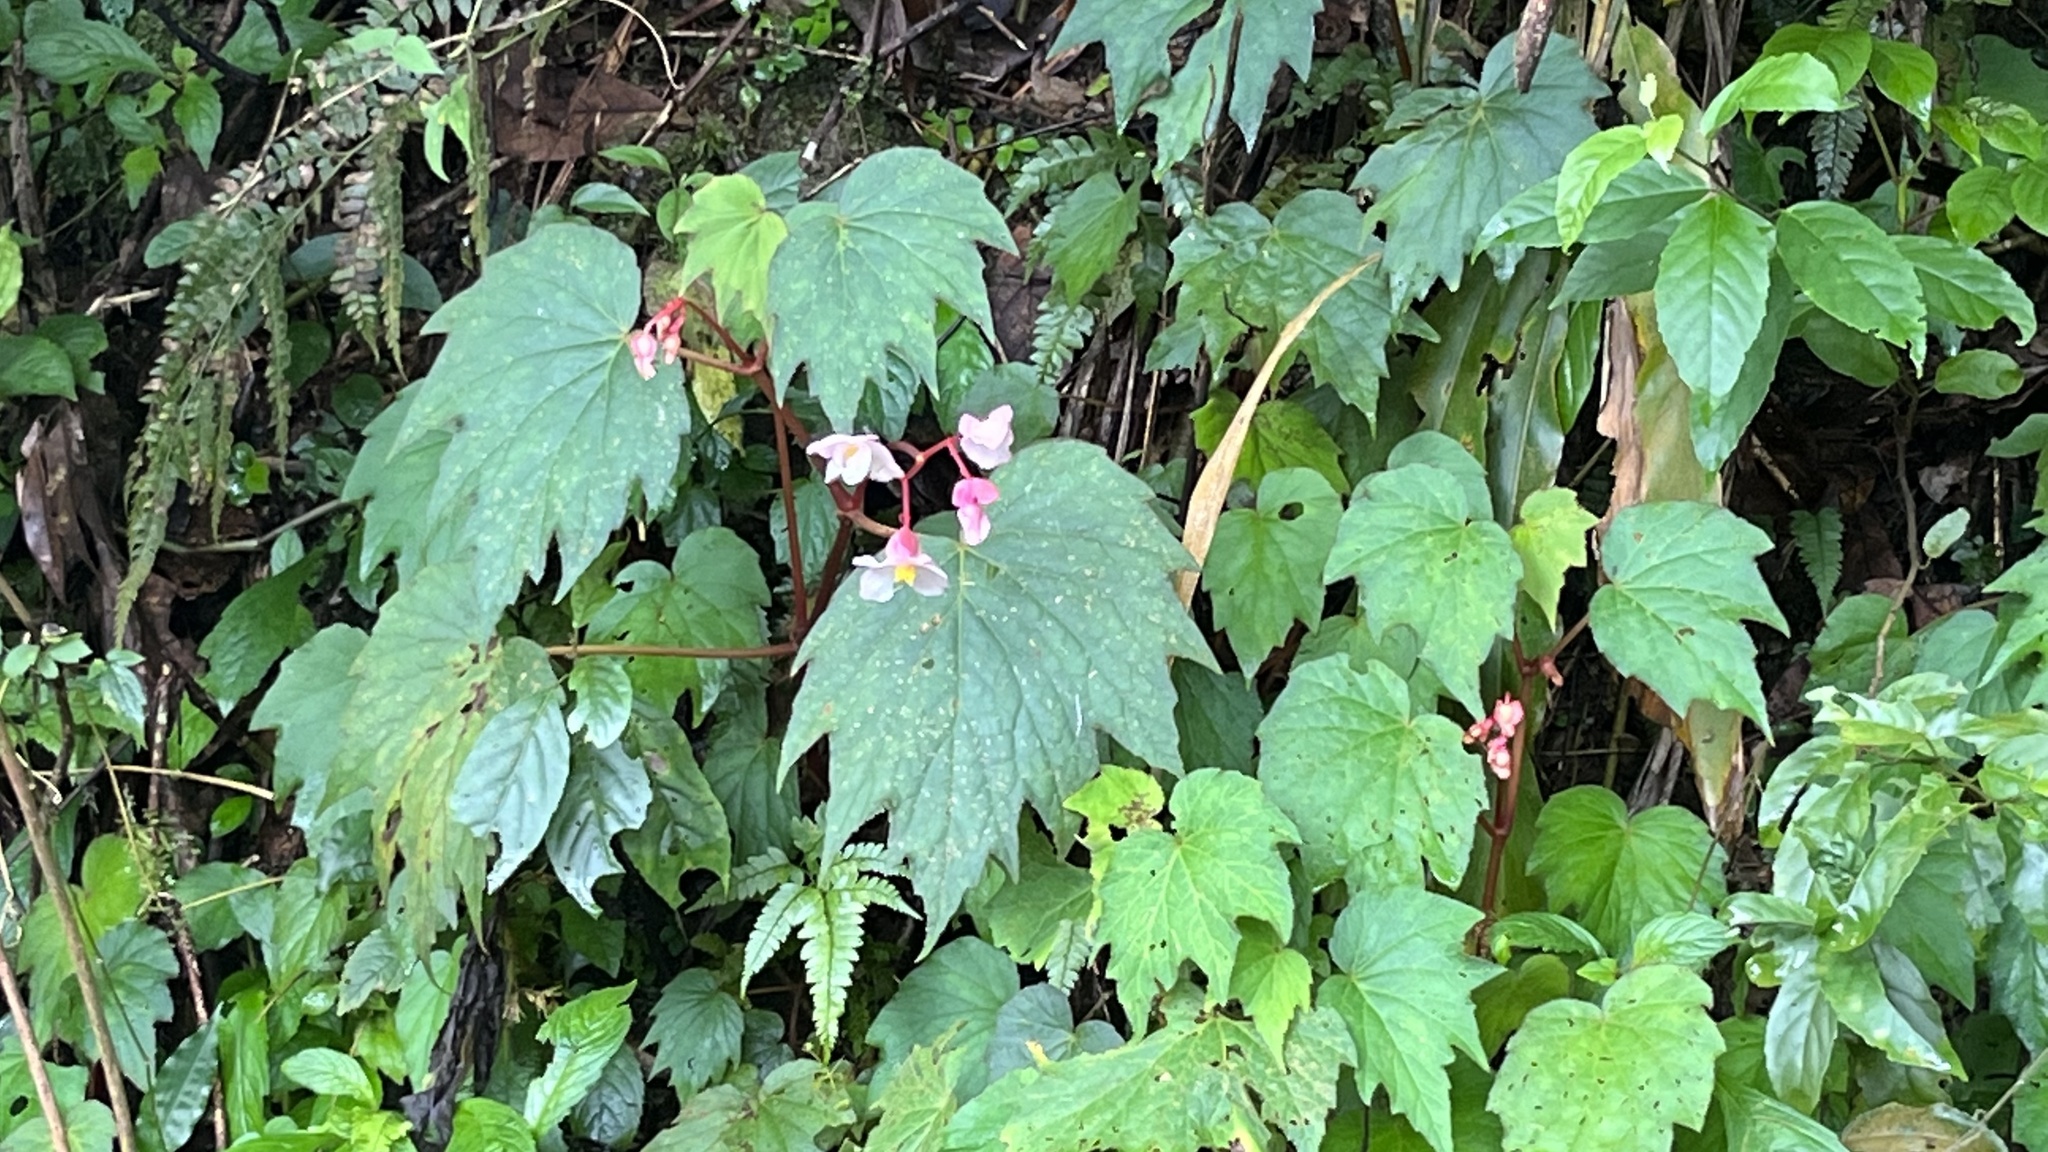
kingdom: Plantae
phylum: Tracheophyta
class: Magnoliopsida
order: Cucurbitales
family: Begoniaceae
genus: Begonia
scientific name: Begonia palmata
